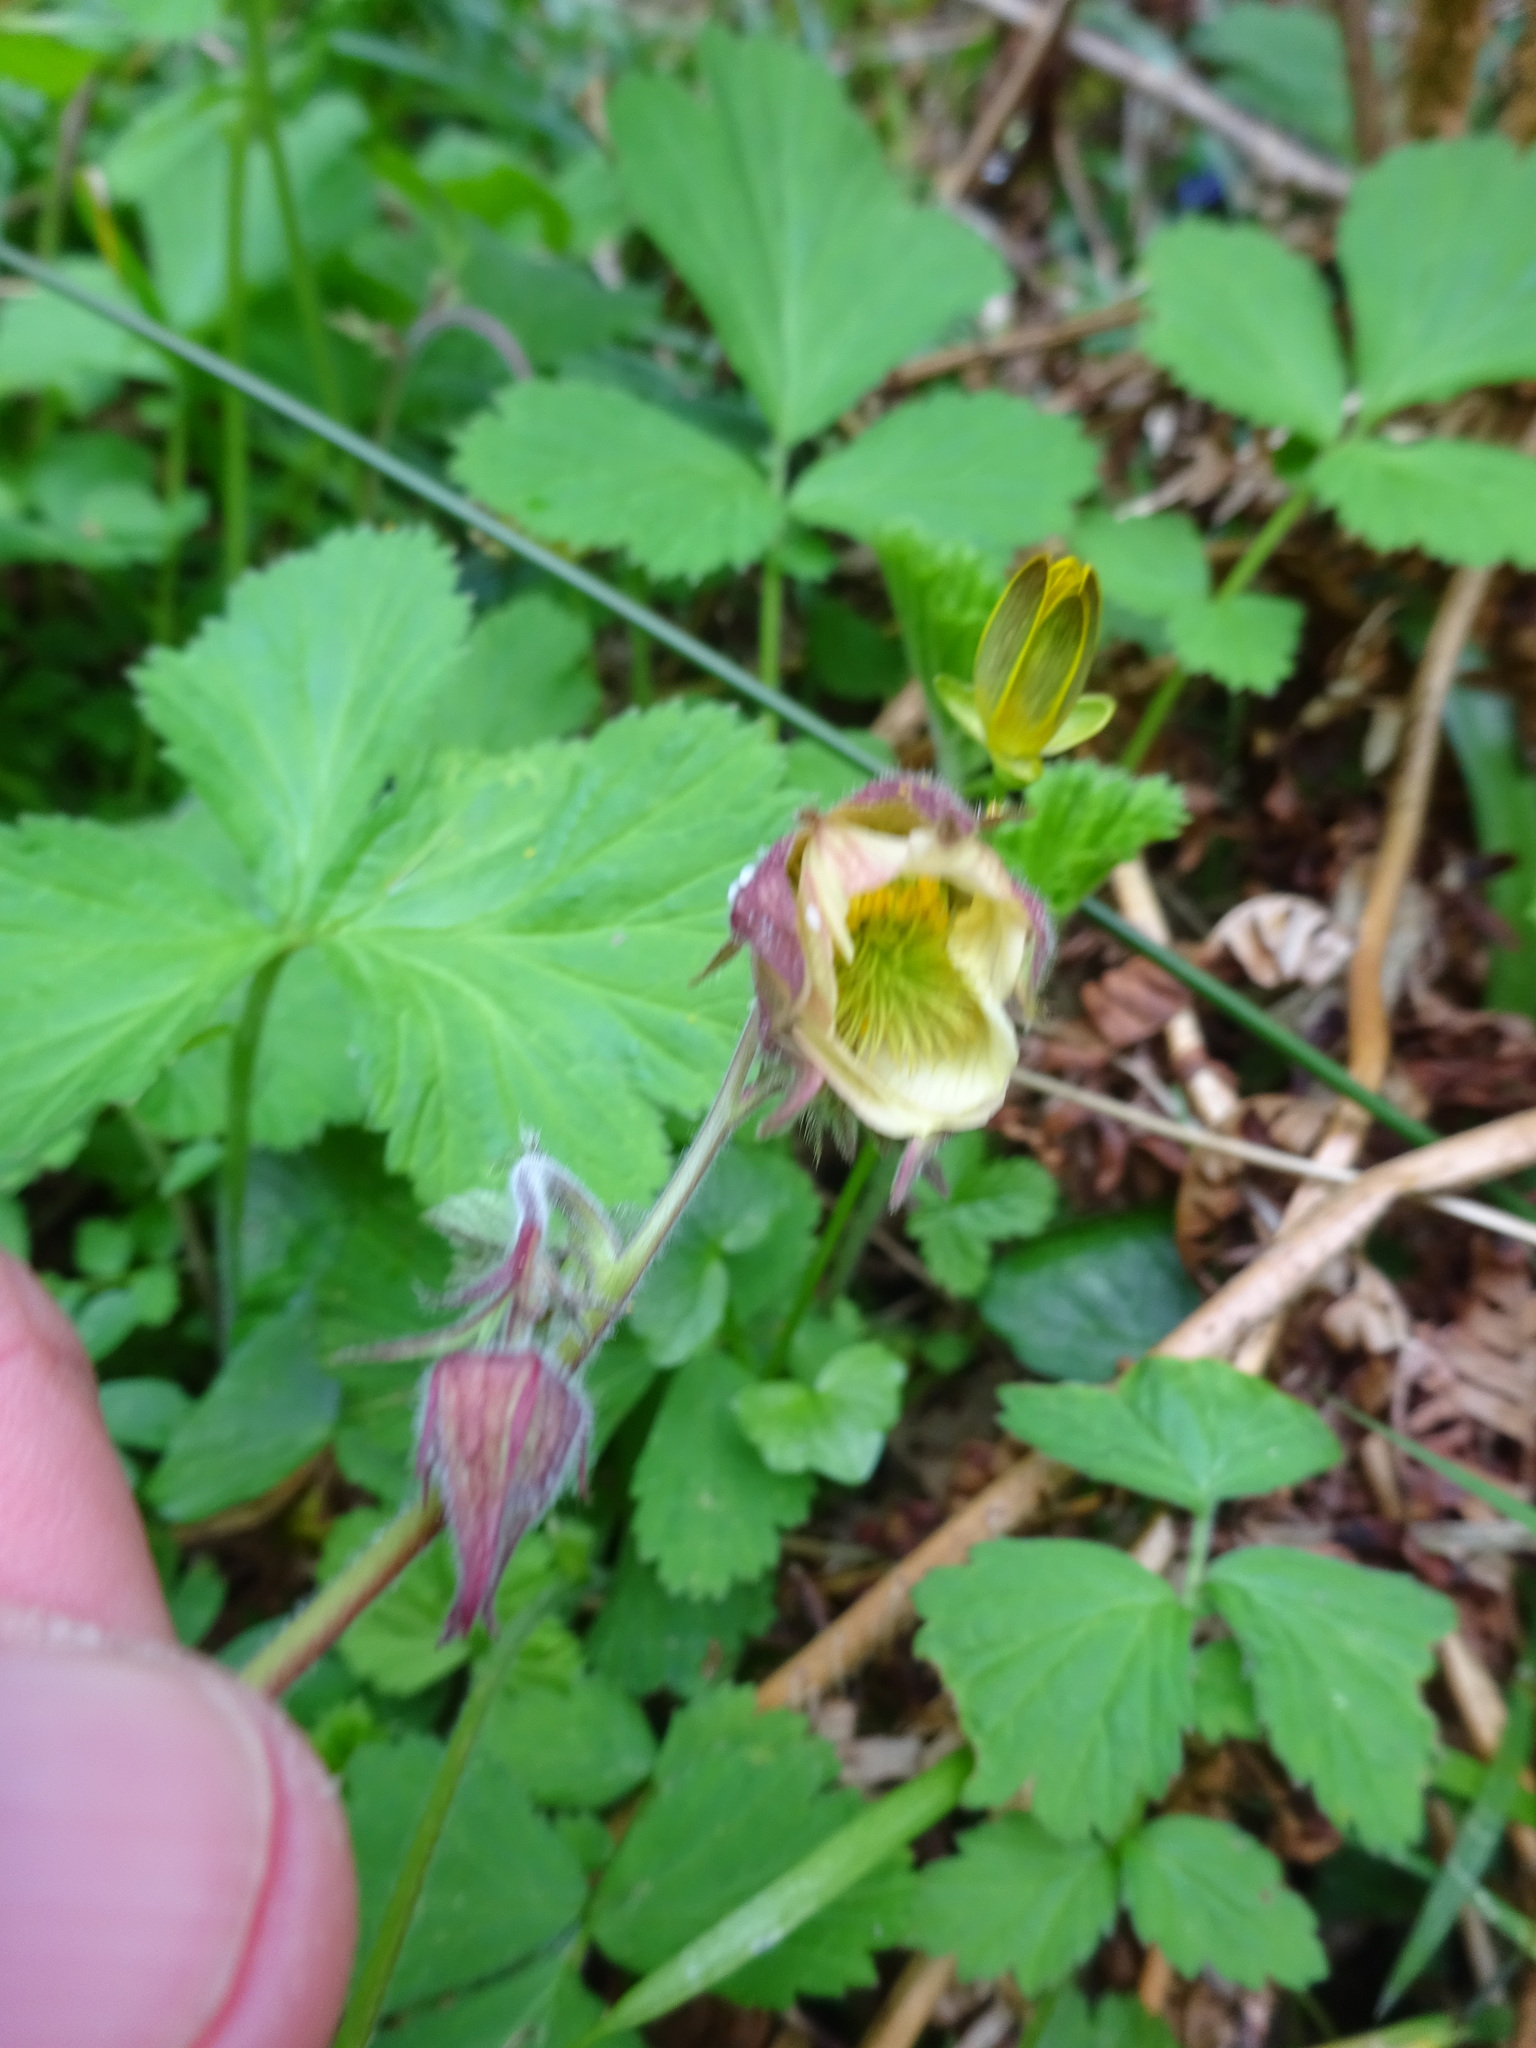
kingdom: Plantae
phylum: Tracheophyta
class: Magnoliopsida
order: Rosales
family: Rosaceae
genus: Geum
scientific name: Geum rivale
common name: Water avens
